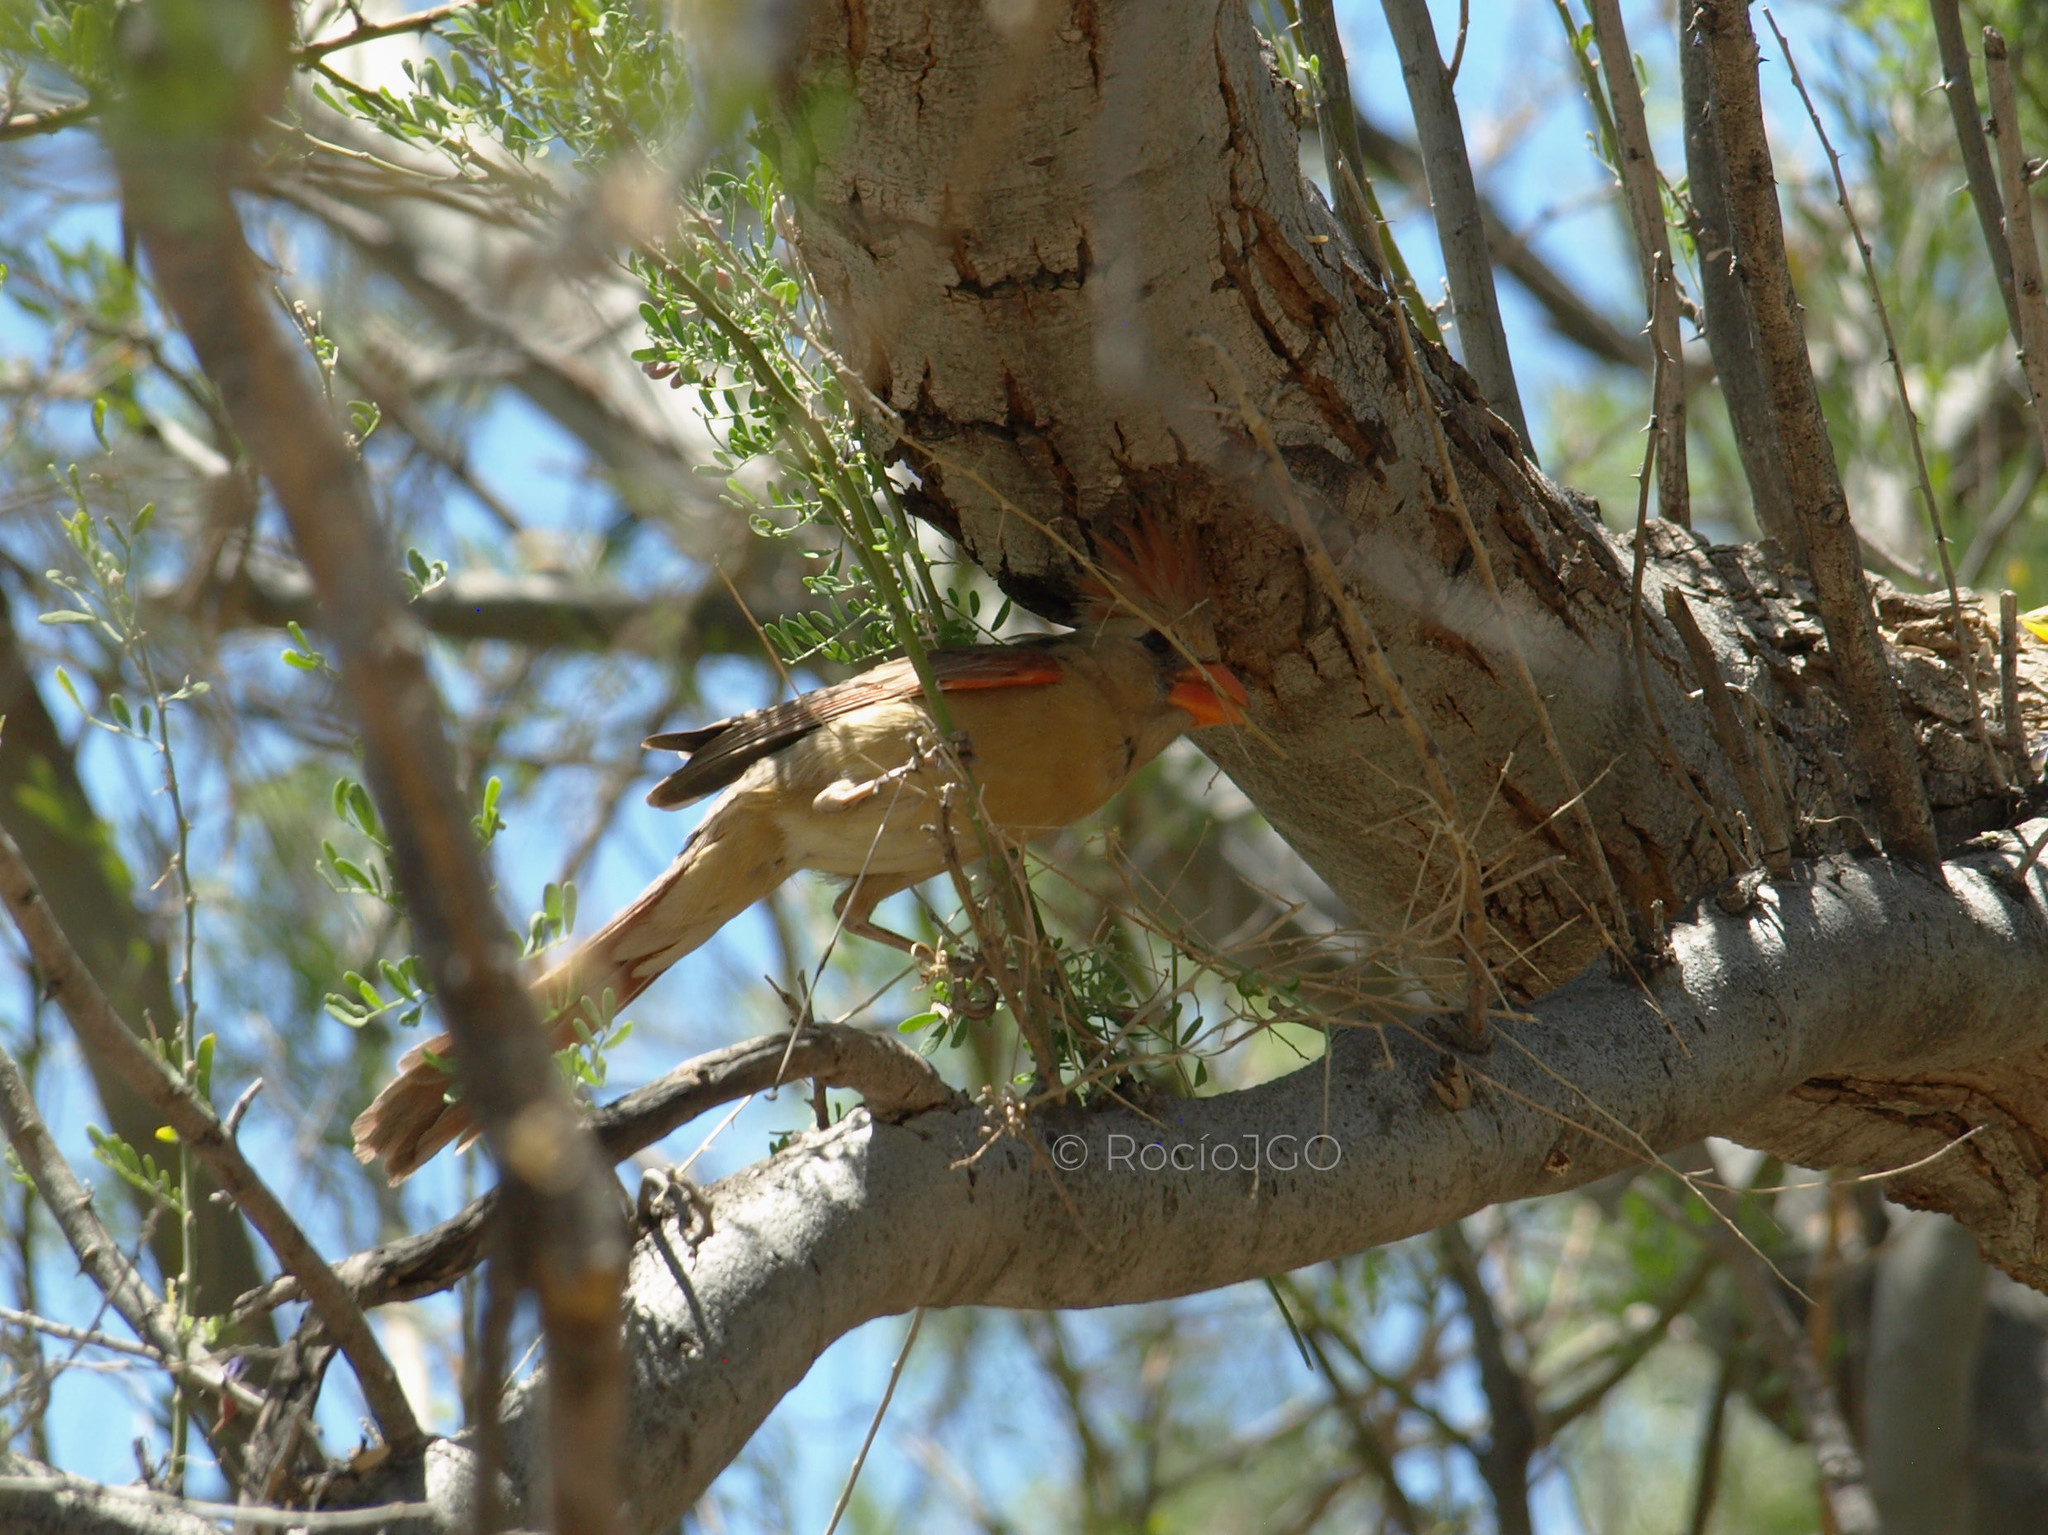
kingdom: Animalia
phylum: Chordata
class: Aves
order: Passeriformes
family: Cardinalidae
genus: Cardinalis
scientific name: Cardinalis cardinalis
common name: Northern cardinal
